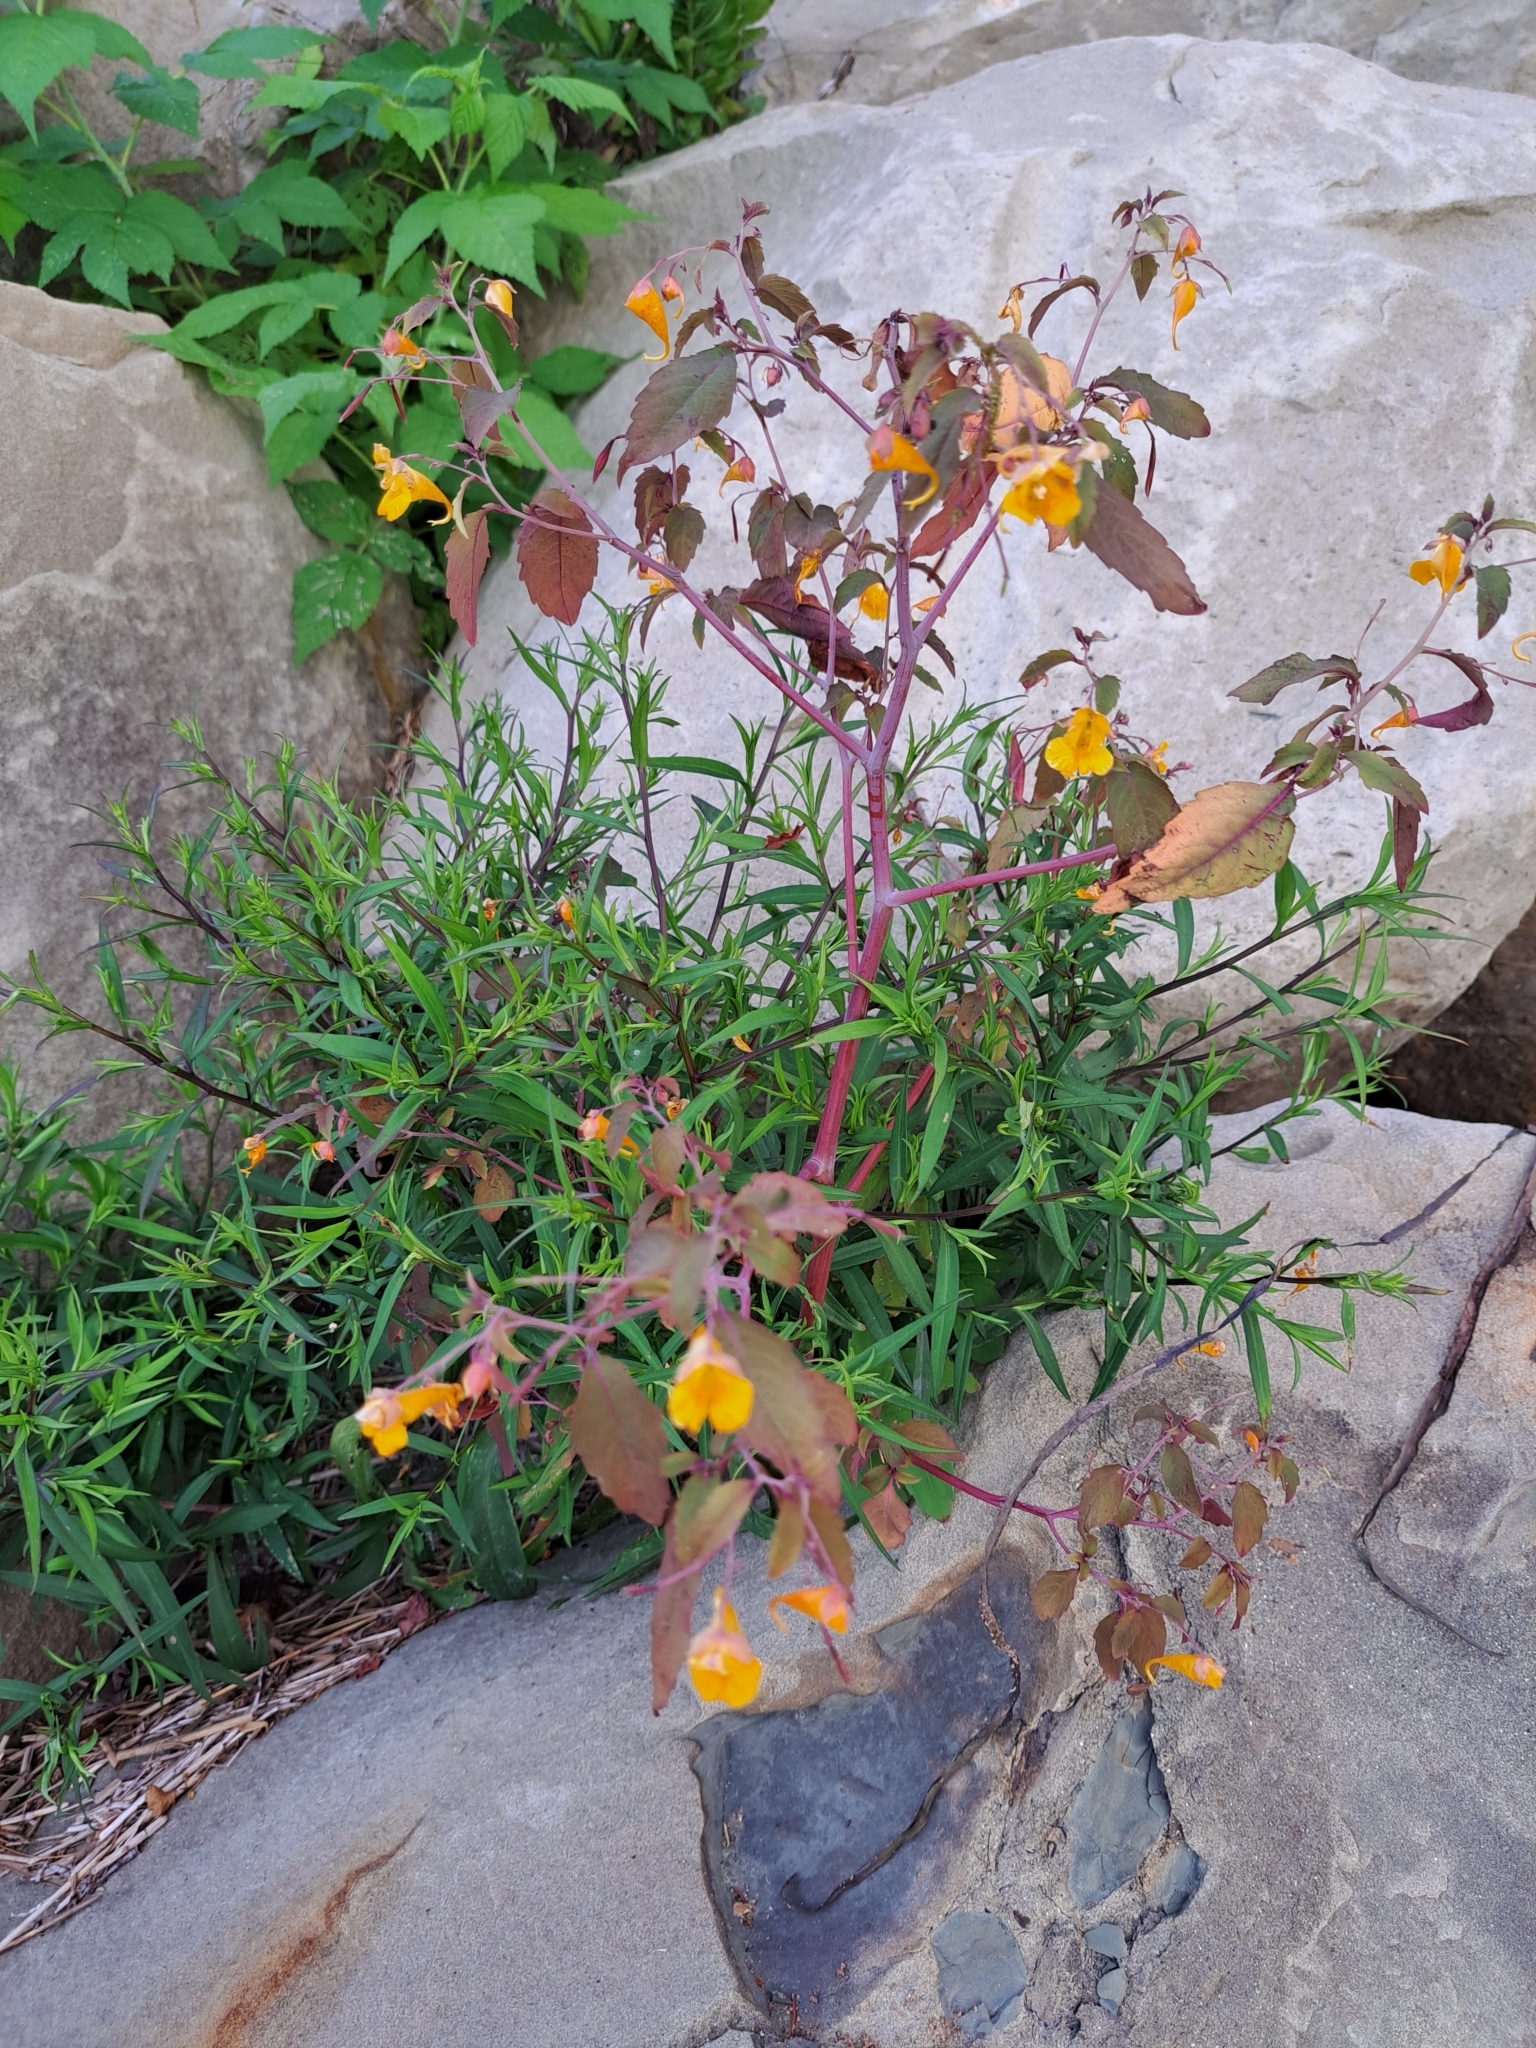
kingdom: Plantae
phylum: Tracheophyta
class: Magnoliopsida
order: Ericales
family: Balsaminaceae
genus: Impatiens
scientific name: Impatiens capensis
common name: Orange balsam
